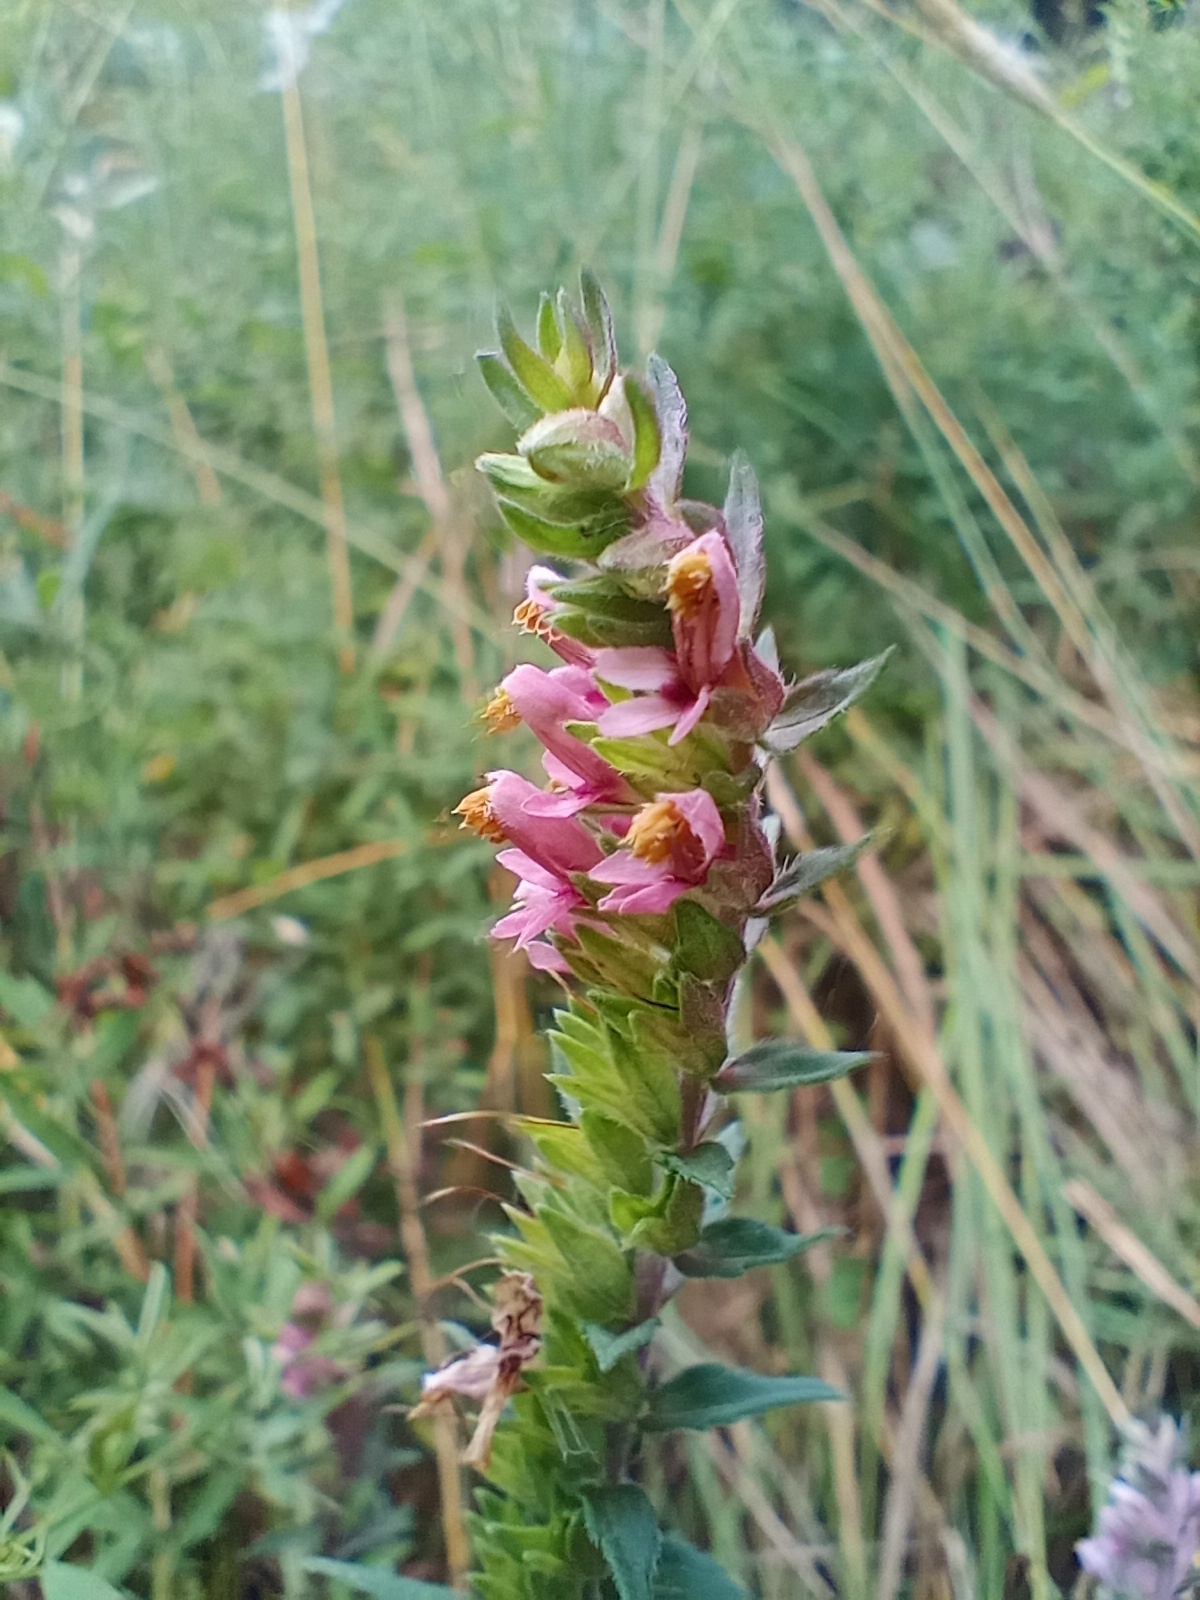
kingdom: Plantae
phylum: Tracheophyta
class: Magnoliopsida
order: Lamiales
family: Orobanchaceae
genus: Odontites
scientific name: Odontites vulgaris
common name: Broomrape
